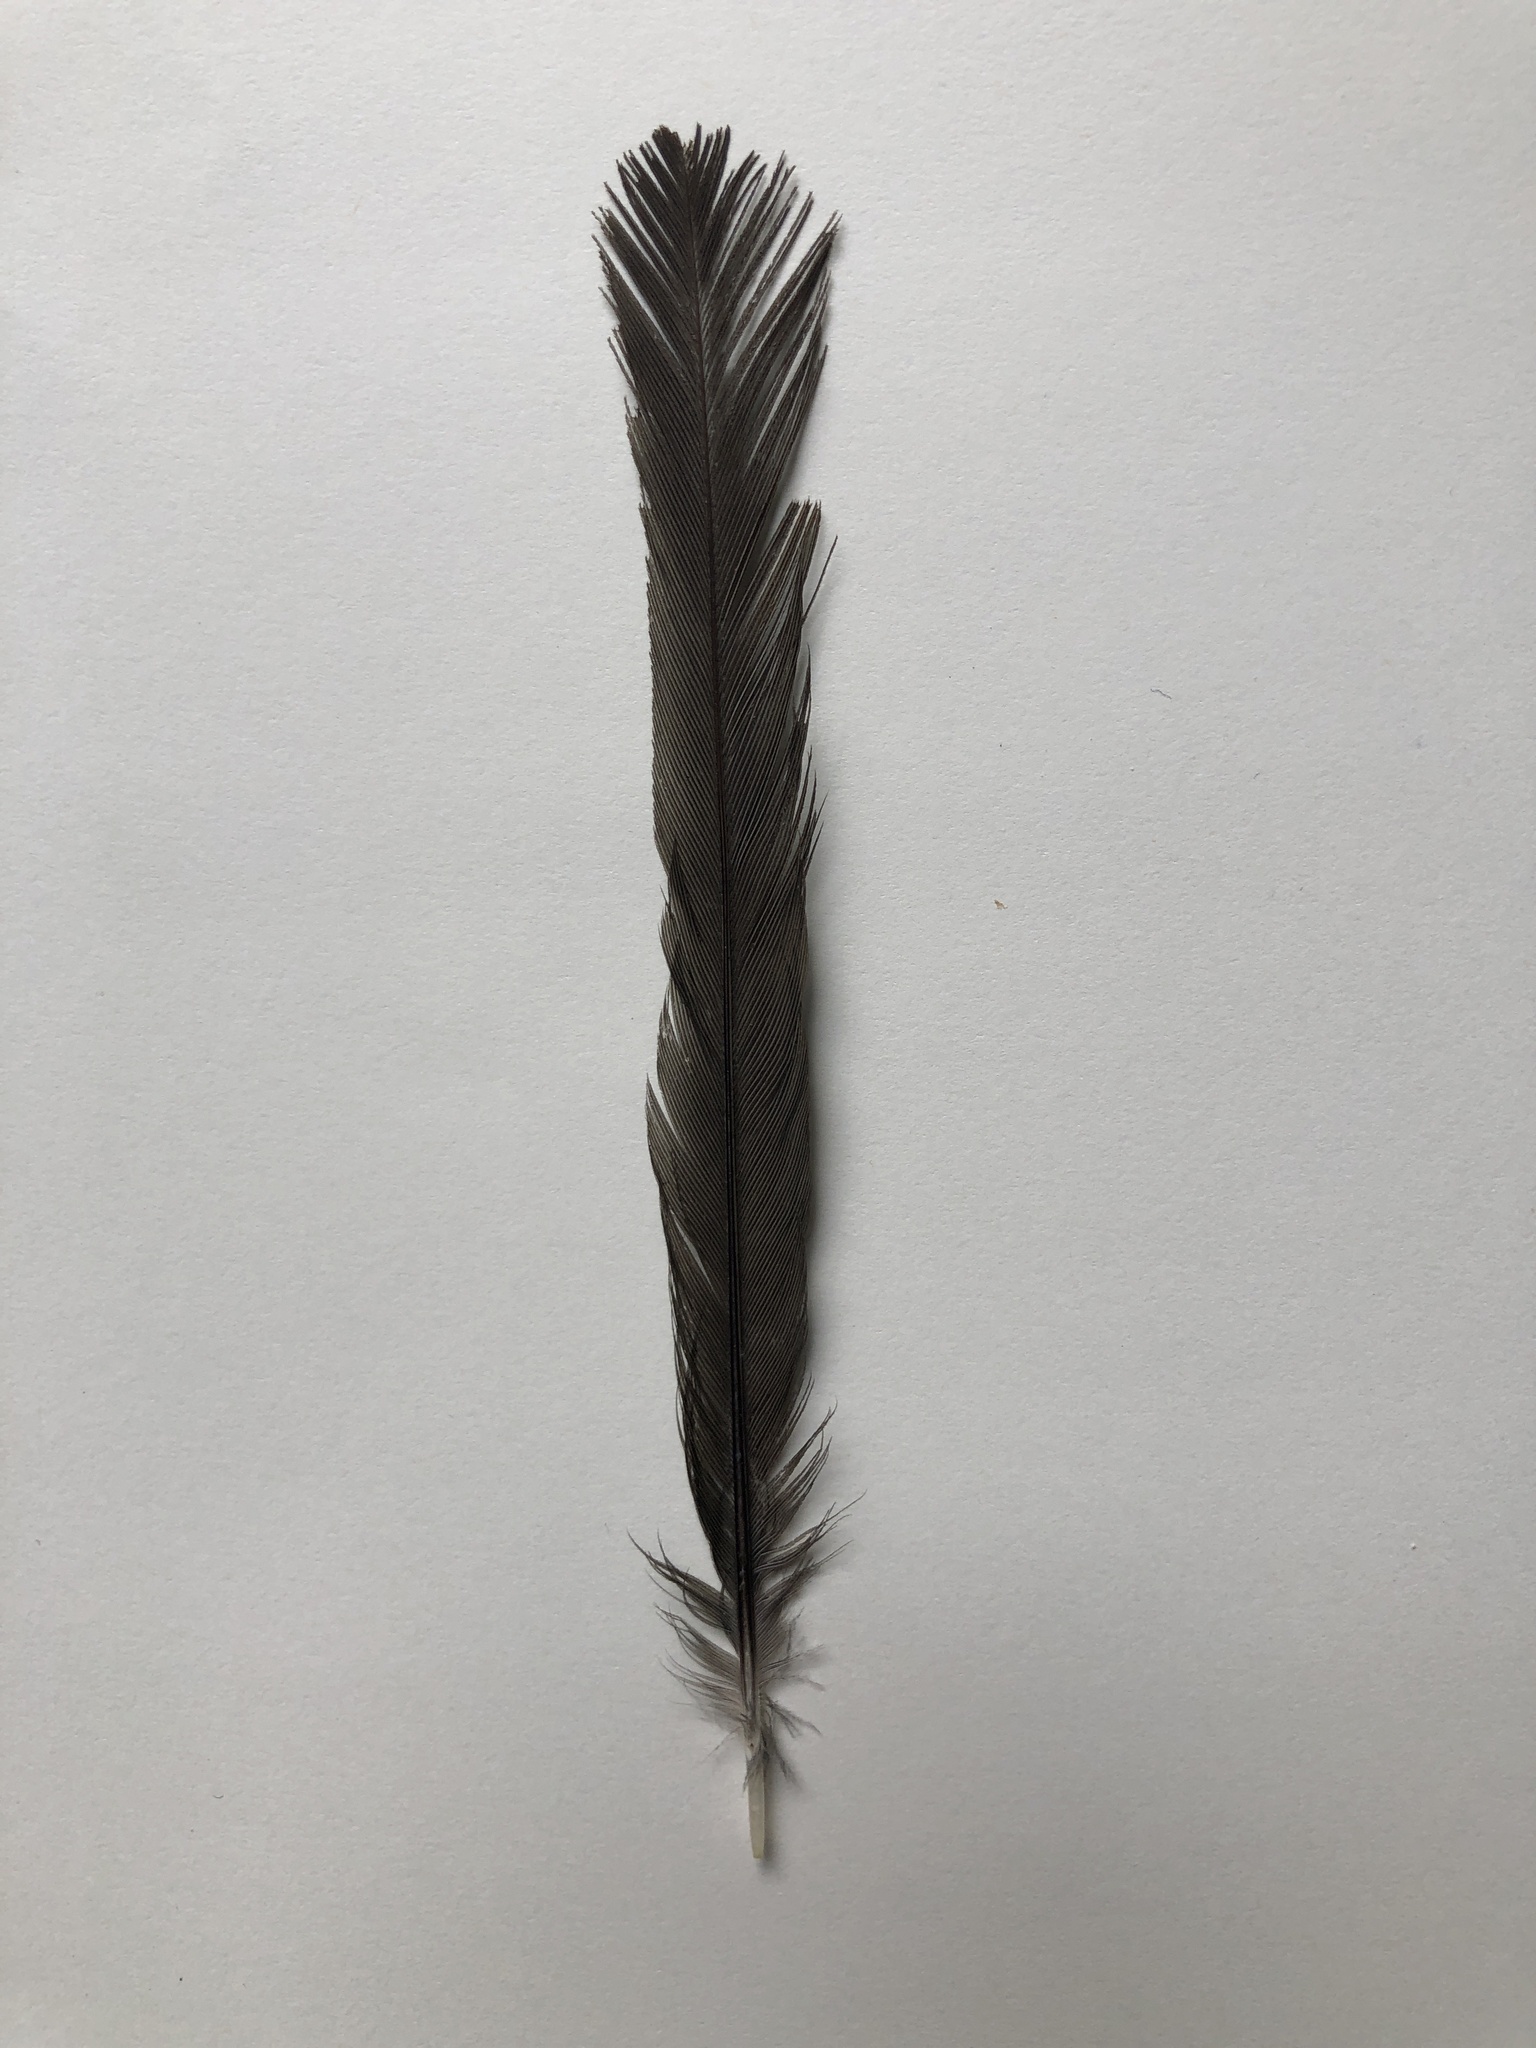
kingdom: Animalia
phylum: Chordata
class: Aves
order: Coraciiformes
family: Momotidae
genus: Aspatha
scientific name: Aspatha gularis
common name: Blue-throated motmot
